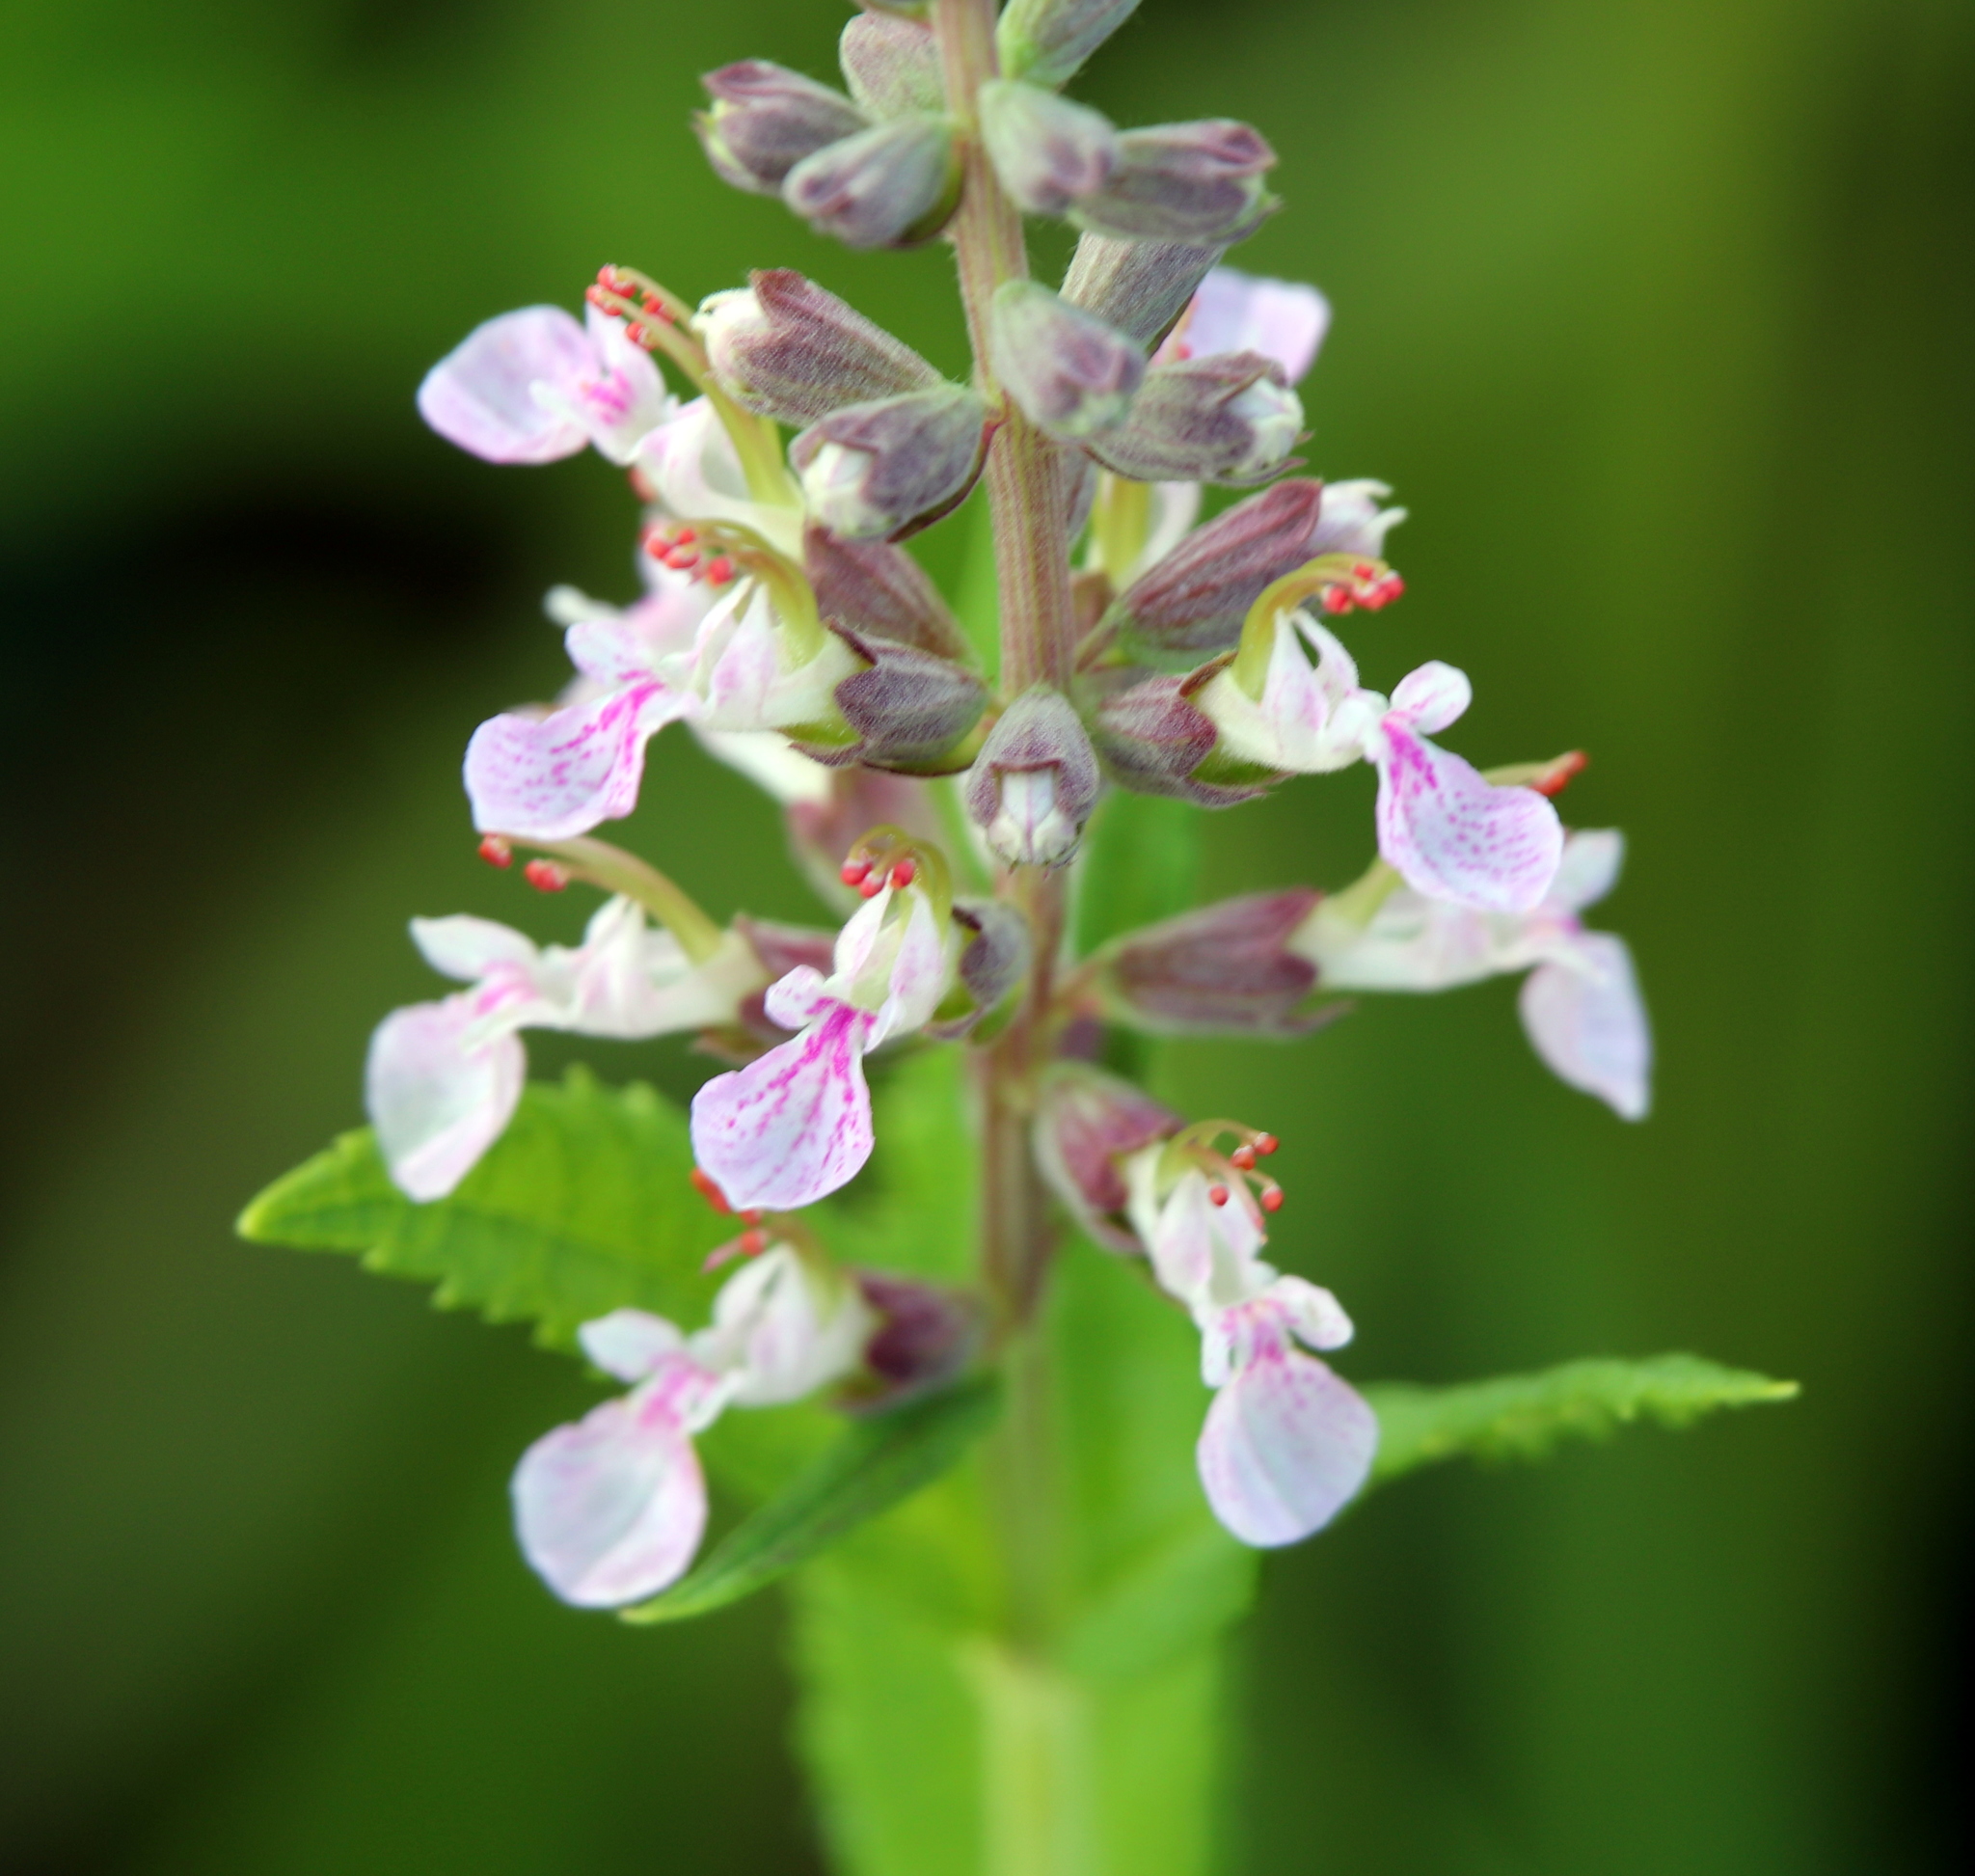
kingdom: Plantae
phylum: Tracheophyta
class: Magnoliopsida
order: Lamiales
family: Lamiaceae
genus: Teucrium
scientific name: Teucrium canadense
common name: American germander
